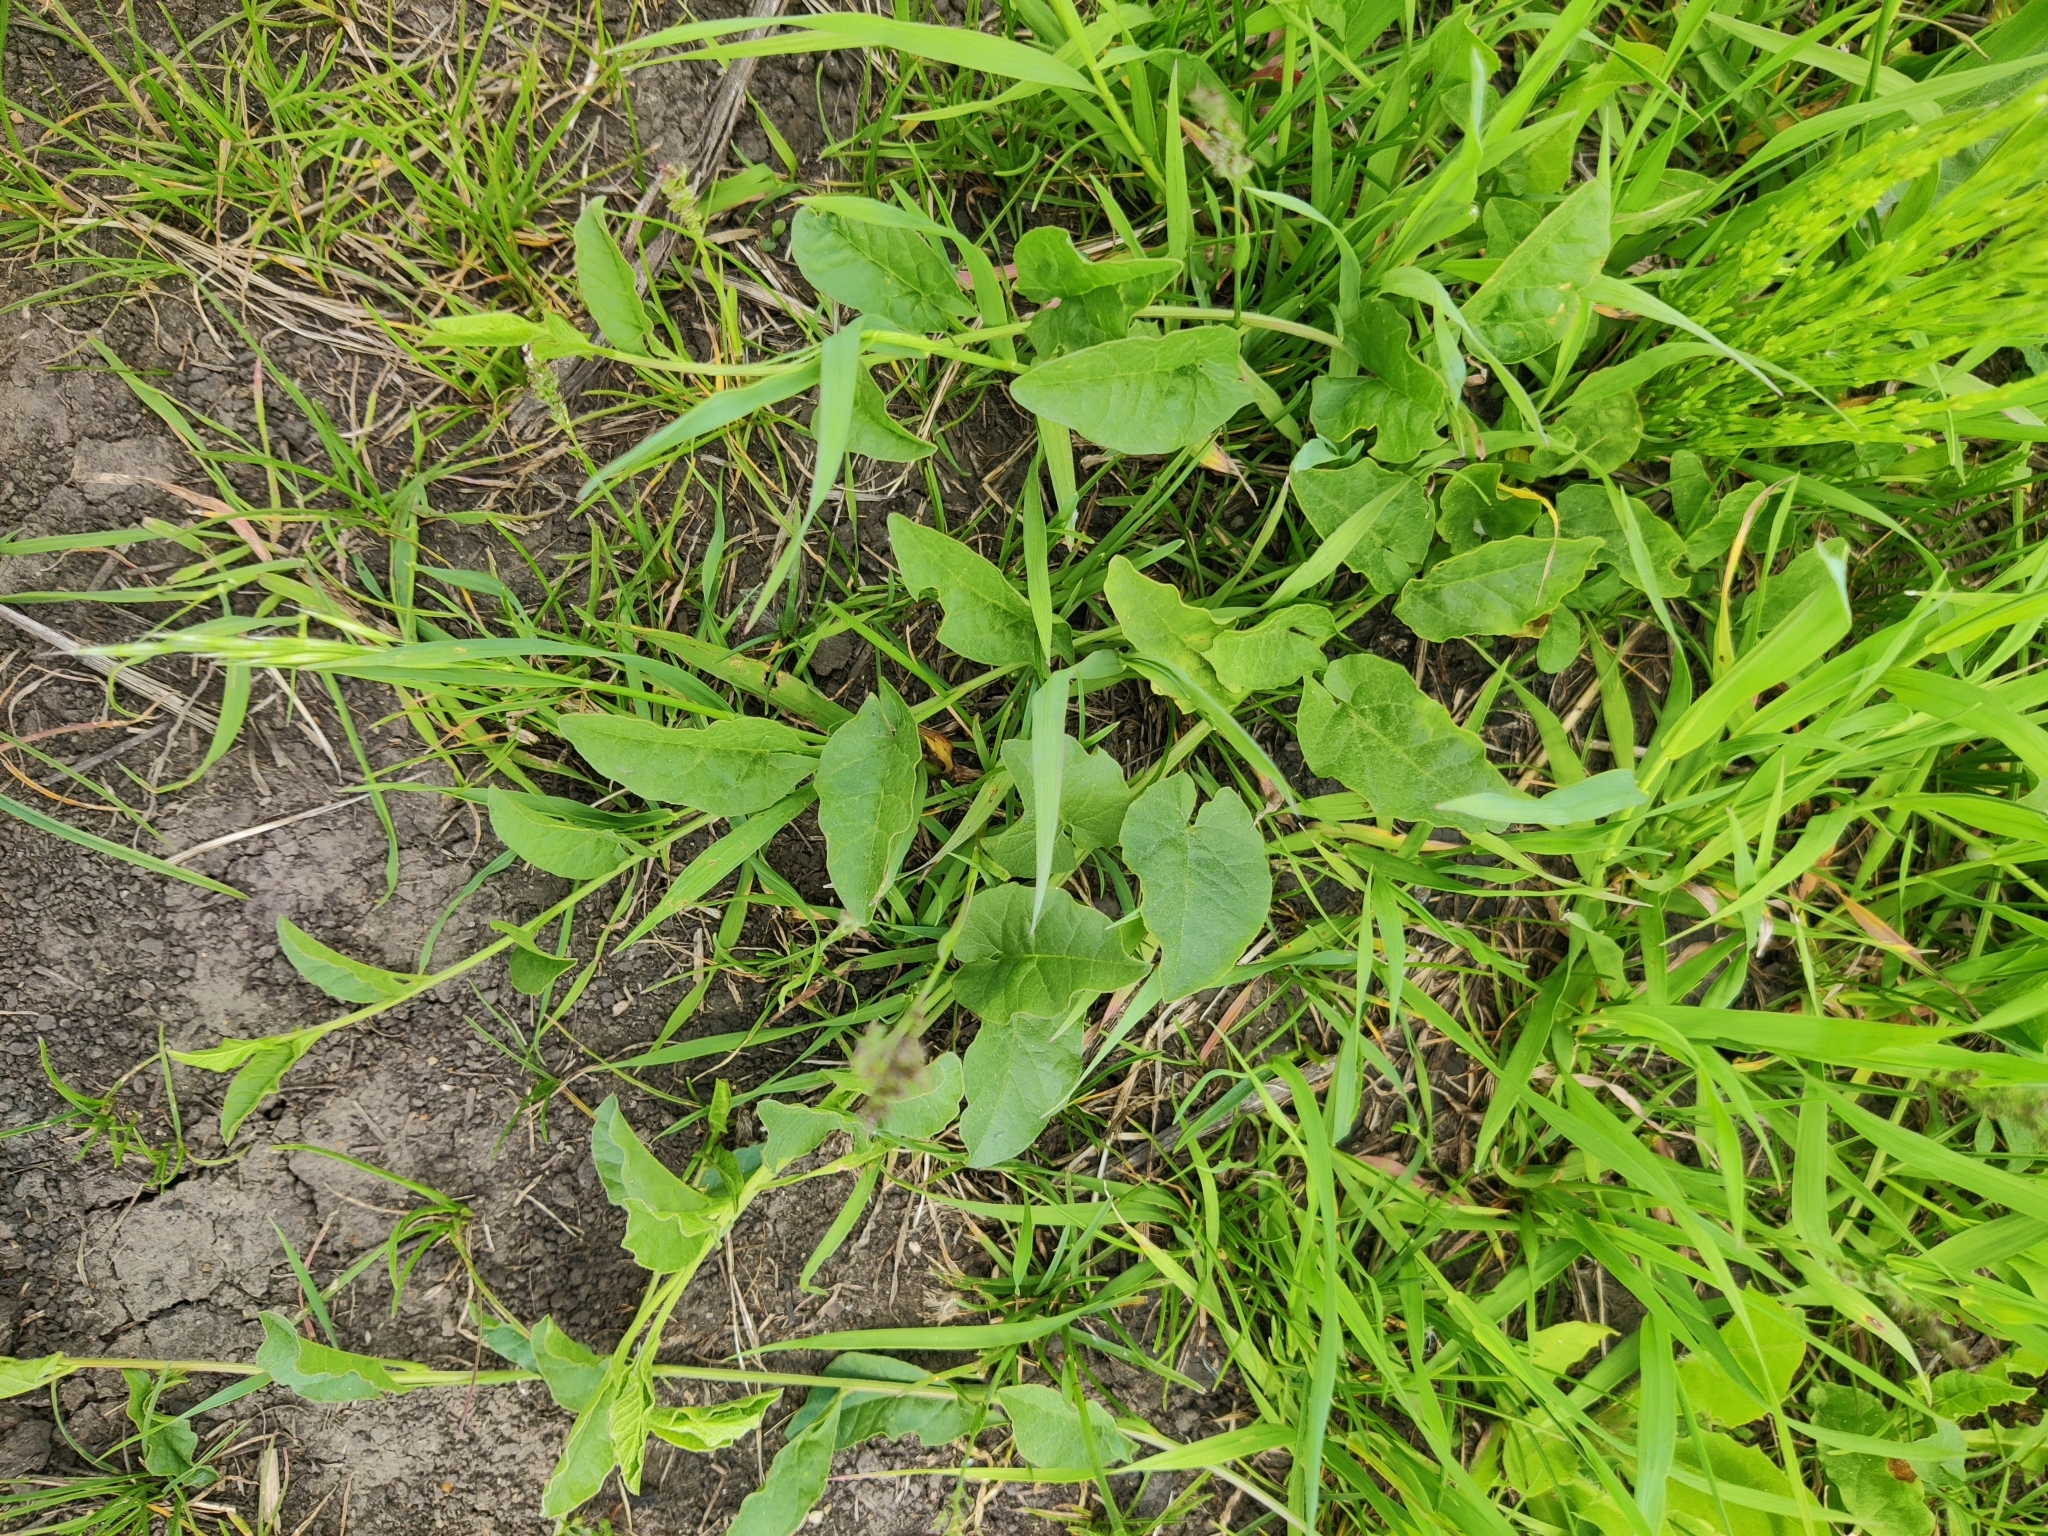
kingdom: Plantae
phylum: Tracheophyta
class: Magnoliopsida
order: Solanales
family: Convolvulaceae
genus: Convolvulus
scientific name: Convolvulus arvensis
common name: Field bindweed
